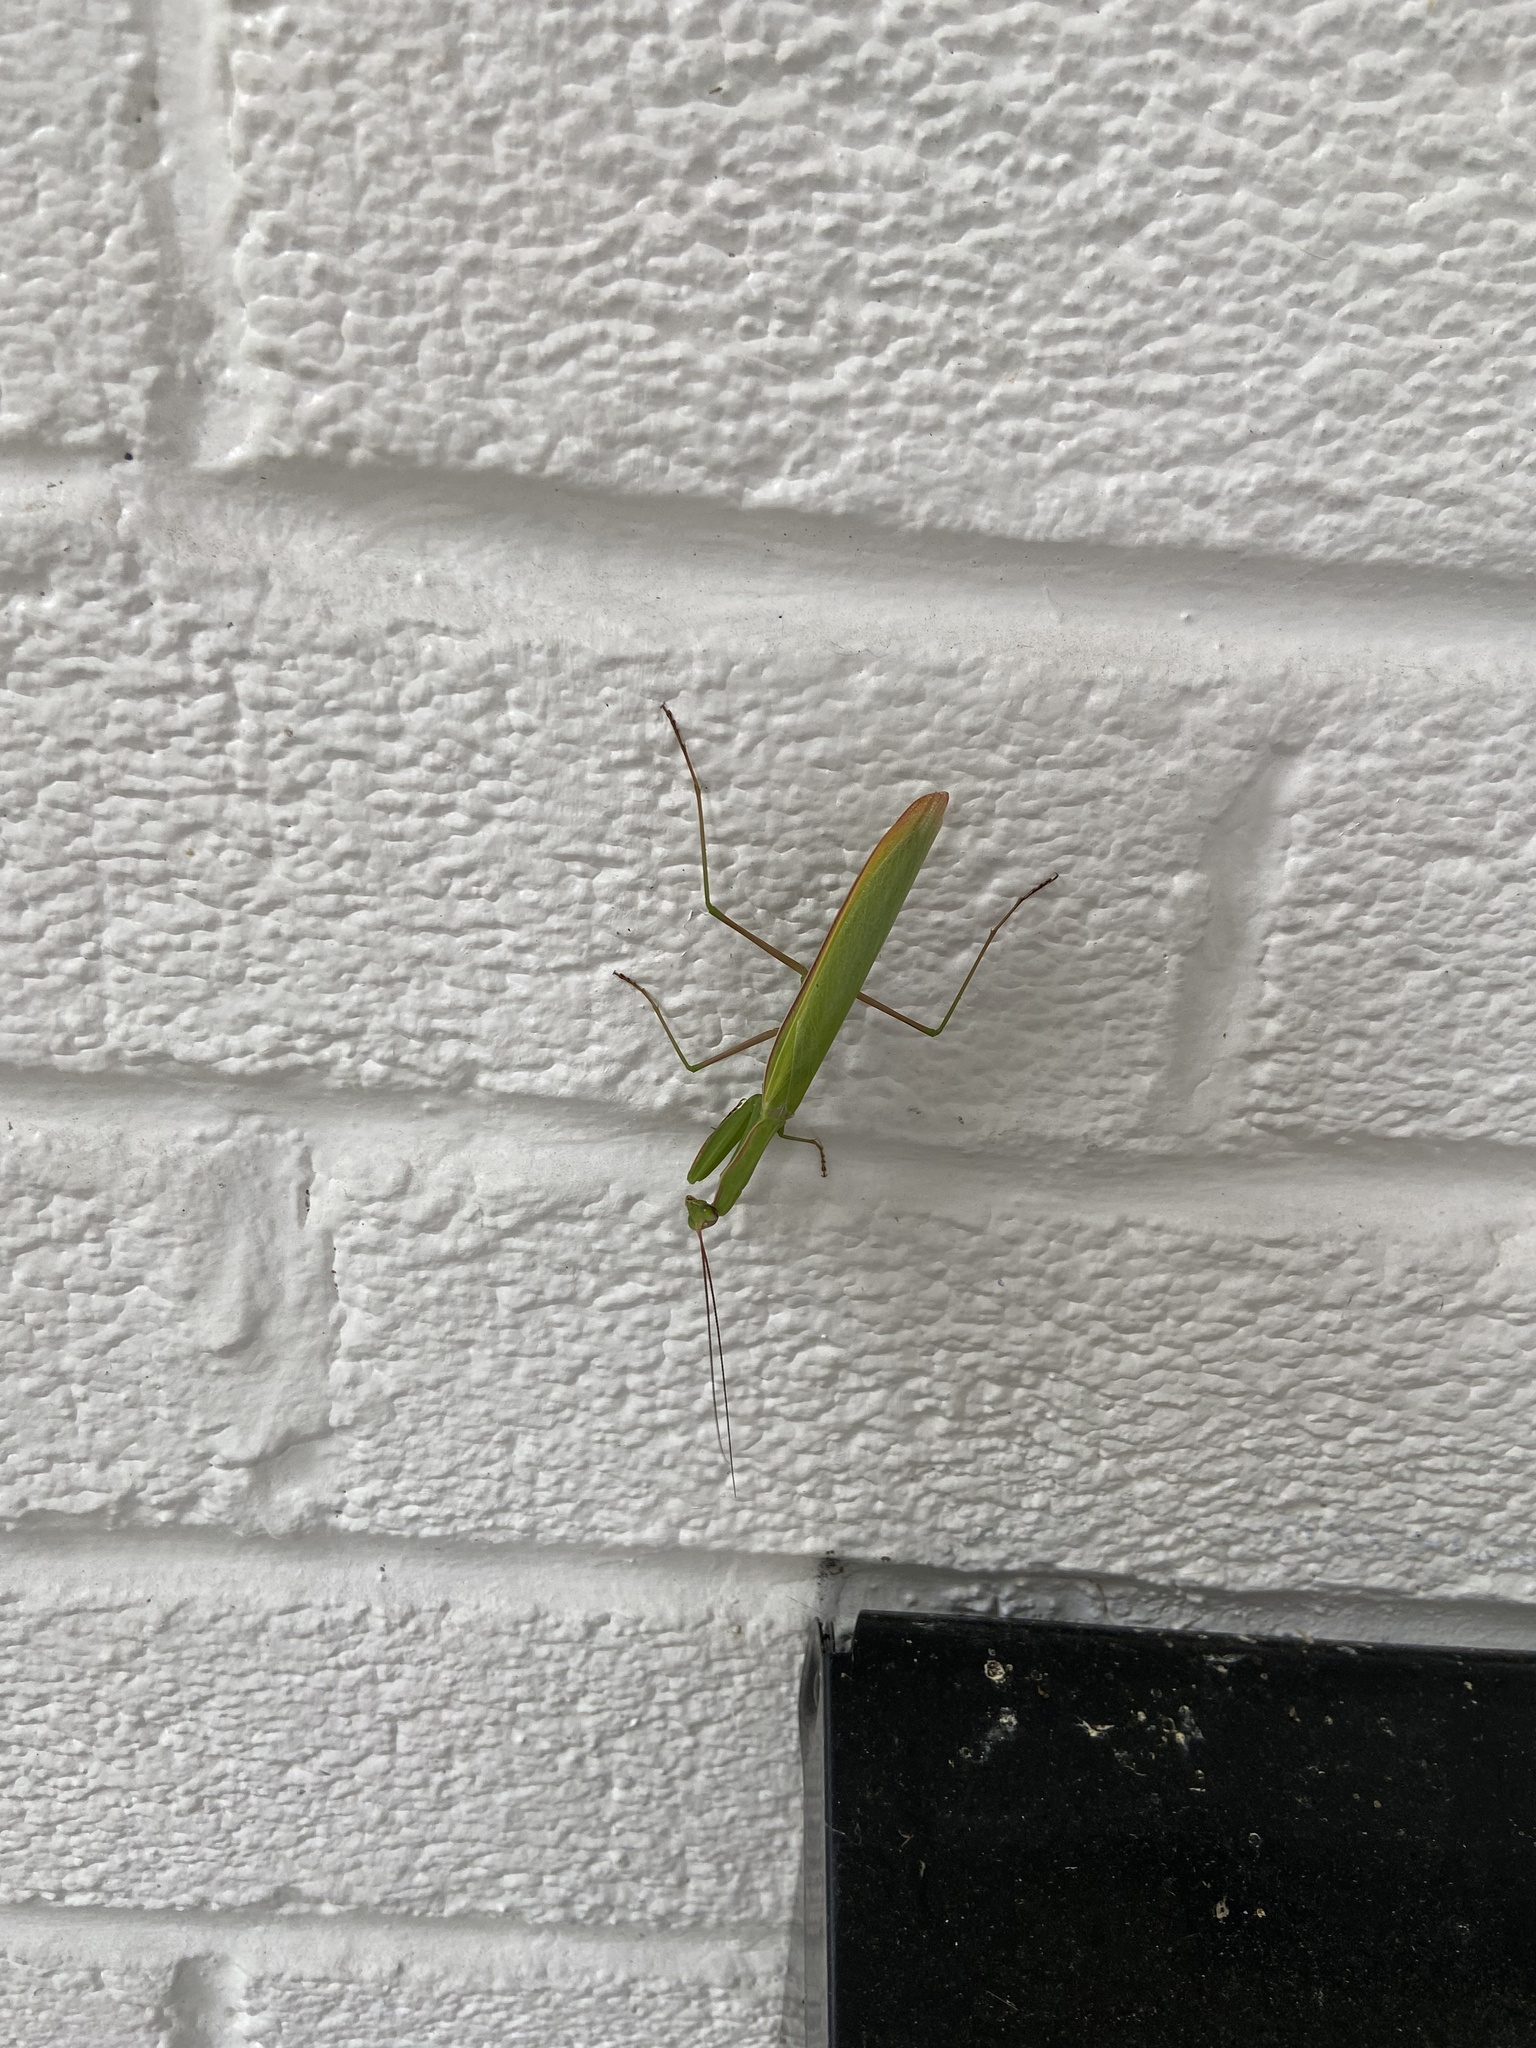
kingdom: Animalia
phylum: Arthropoda
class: Insecta
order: Mantodea
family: Mantidae
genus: Mantis
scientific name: Mantis religiosa
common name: Praying mantis
